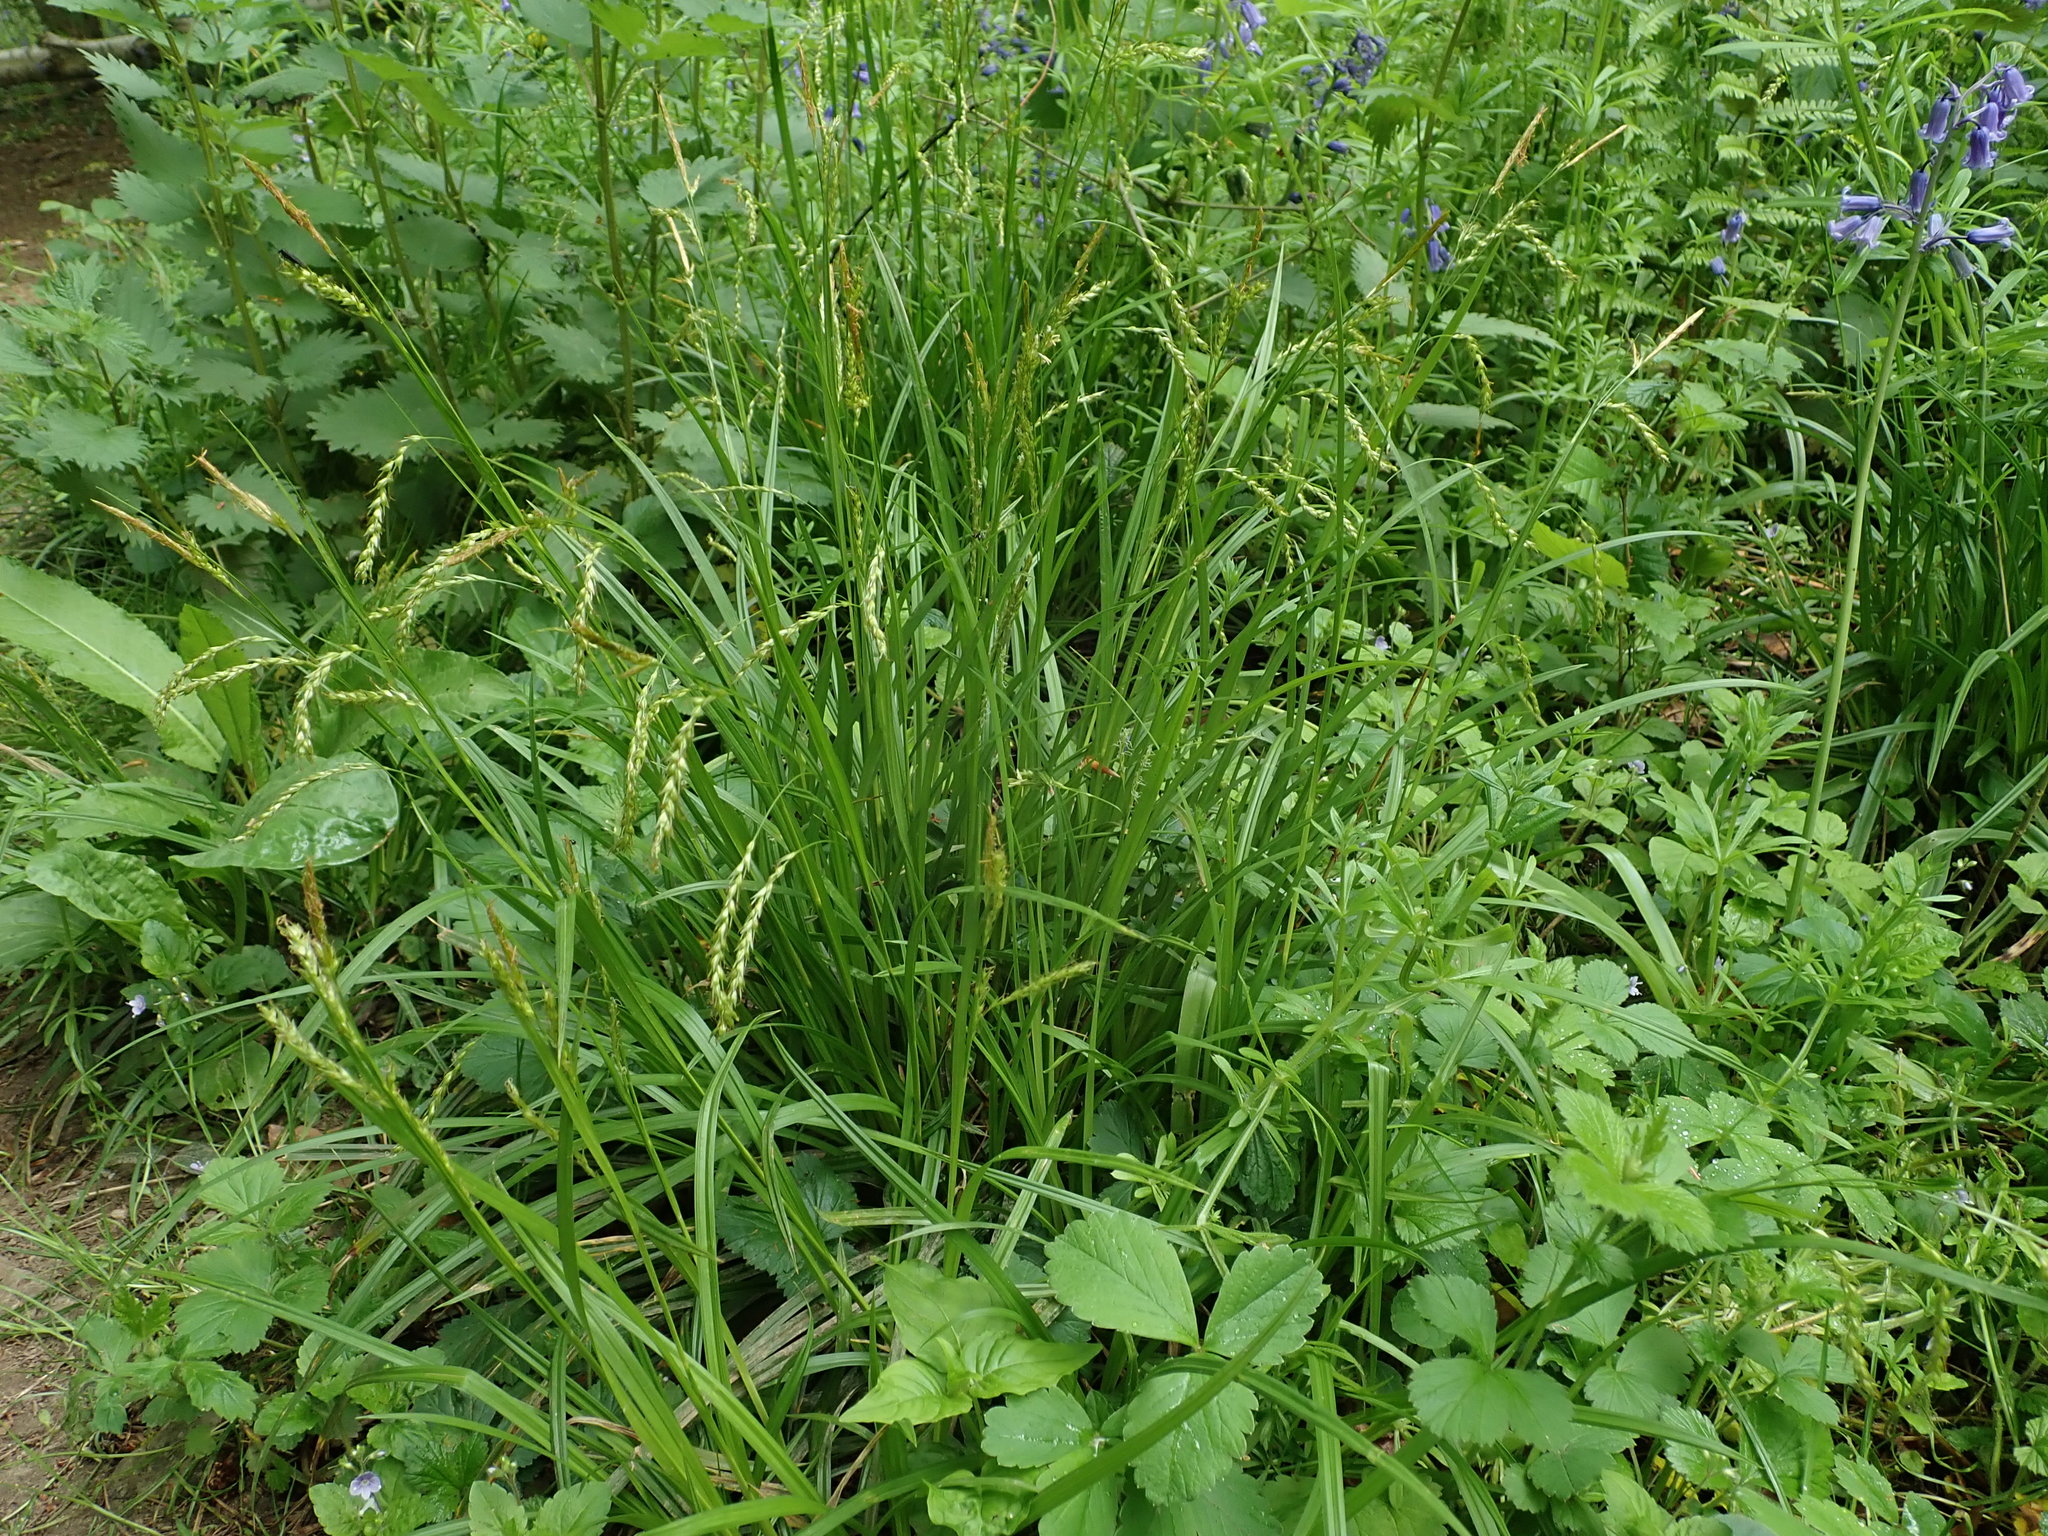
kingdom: Plantae
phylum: Tracheophyta
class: Liliopsida
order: Poales
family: Cyperaceae
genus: Carex
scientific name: Carex sylvatica
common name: Wood-sedge
